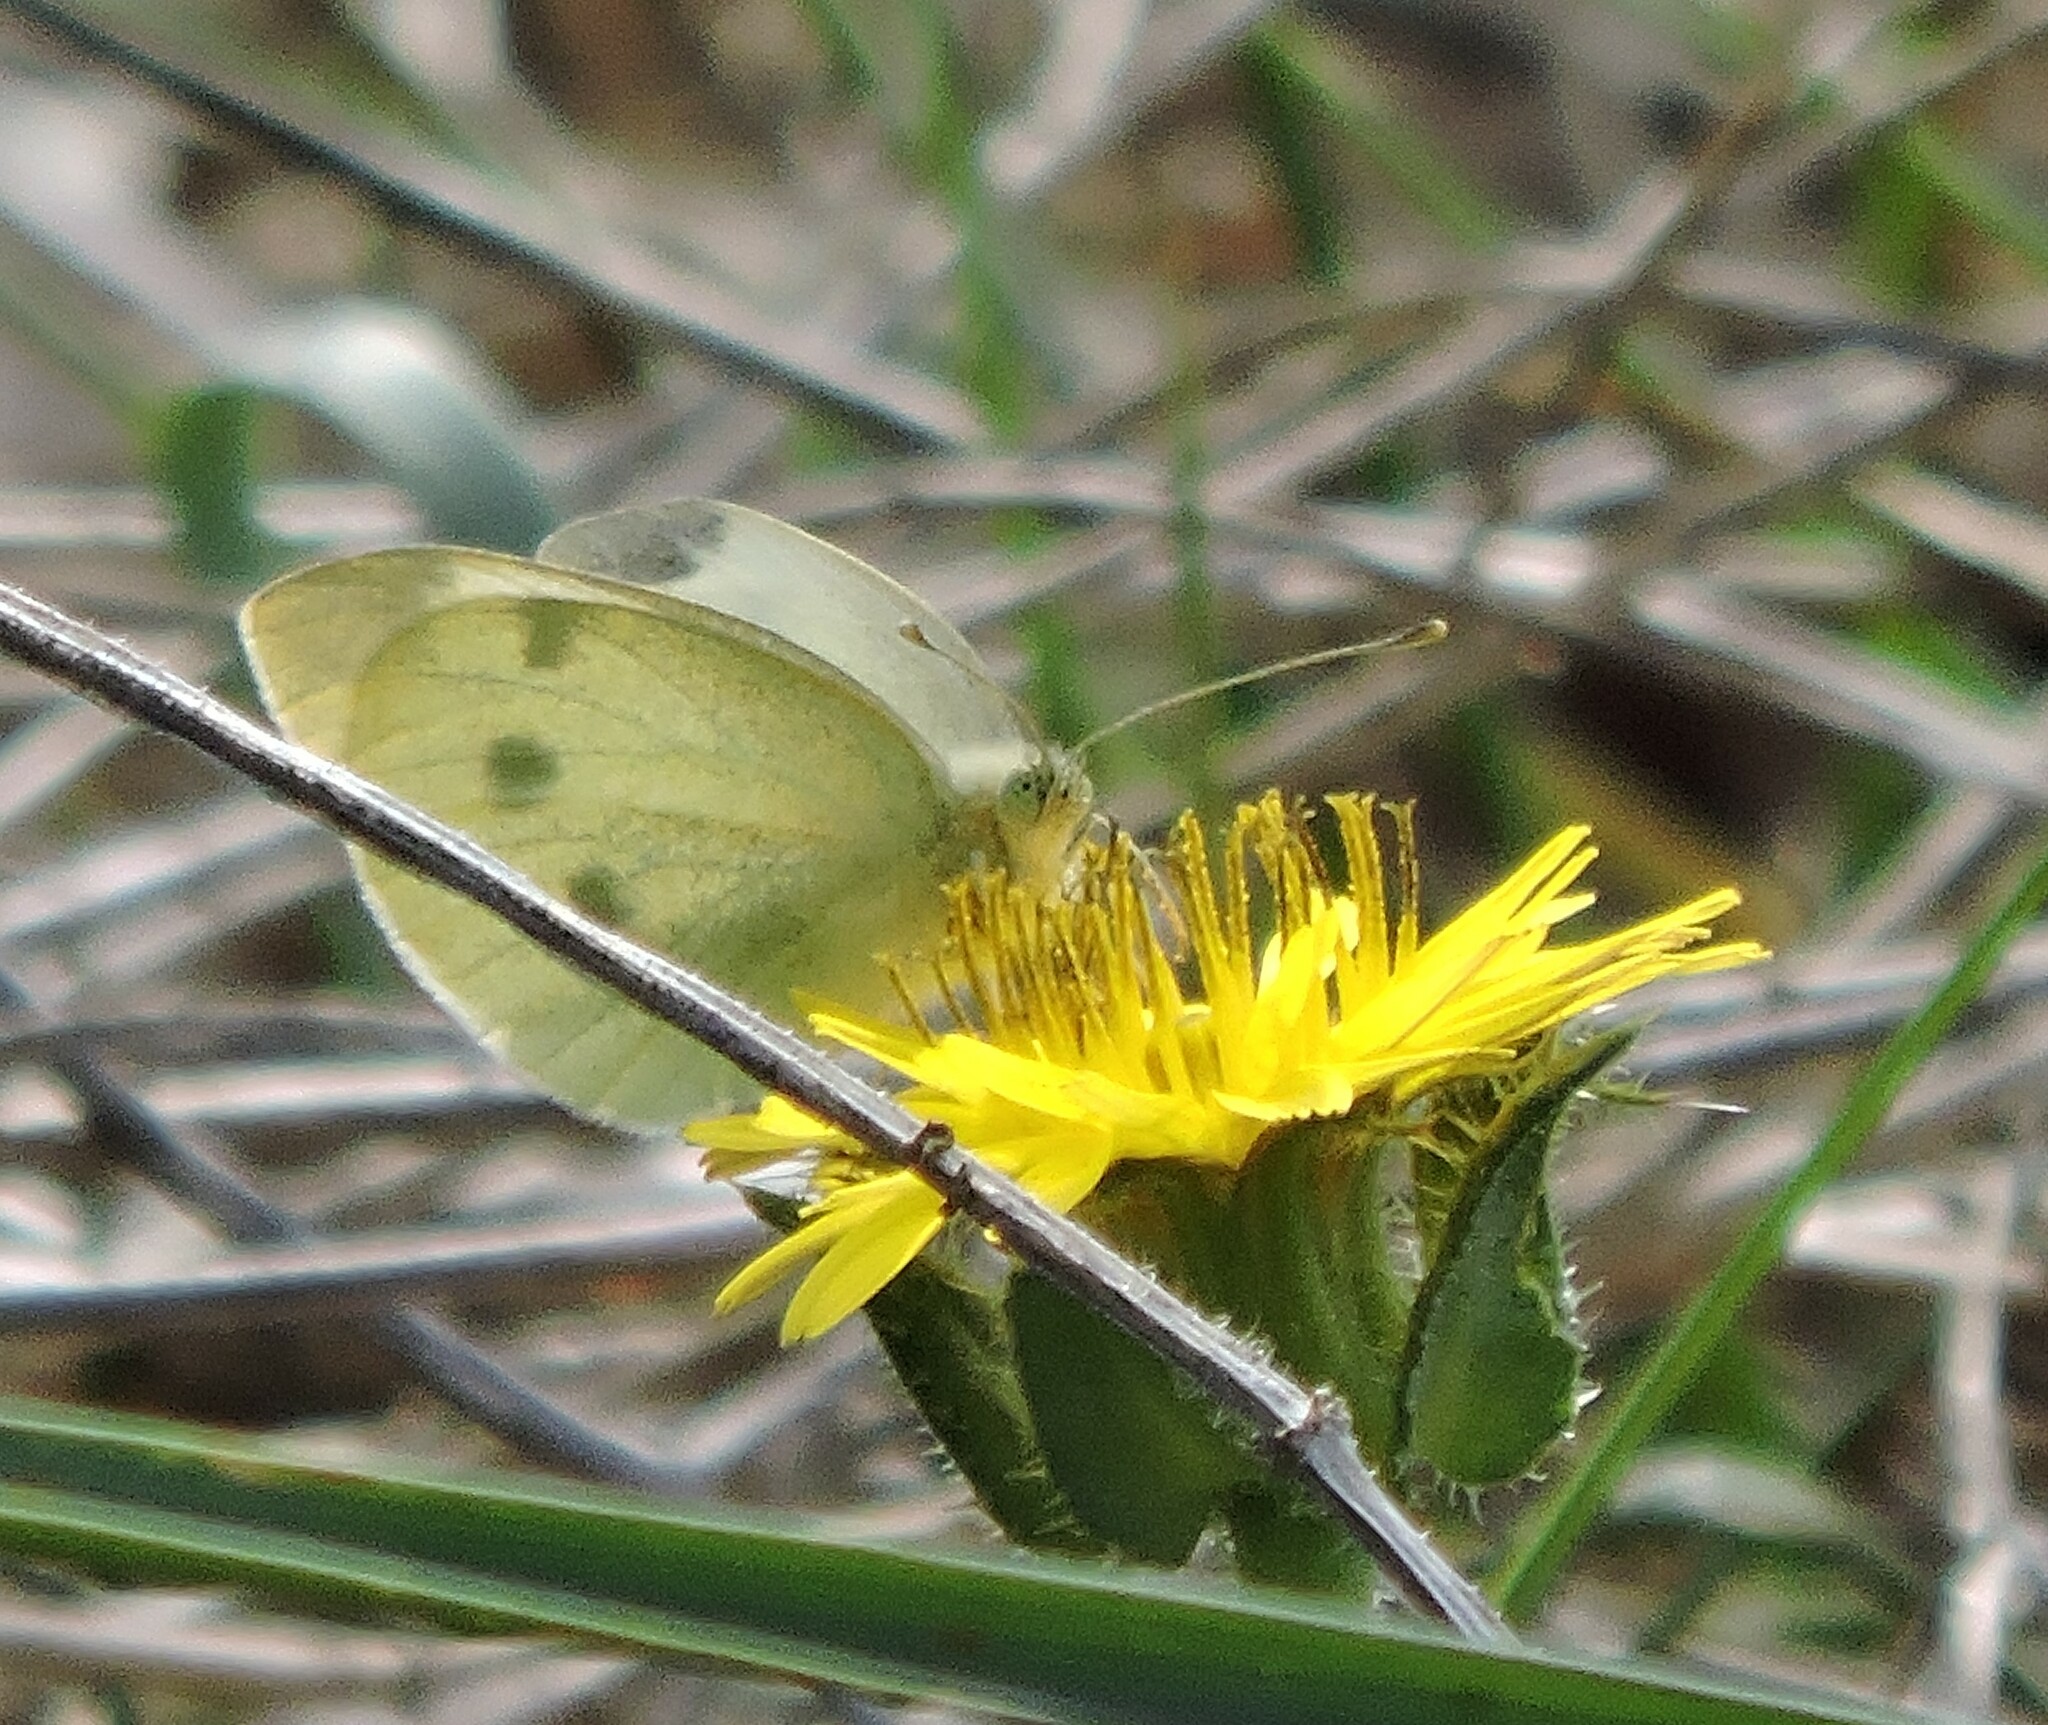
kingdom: Animalia
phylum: Arthropoda
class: Insecta
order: Lepidoptera
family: Pieridae
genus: Pieris
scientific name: Pieris rapae
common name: Small white
